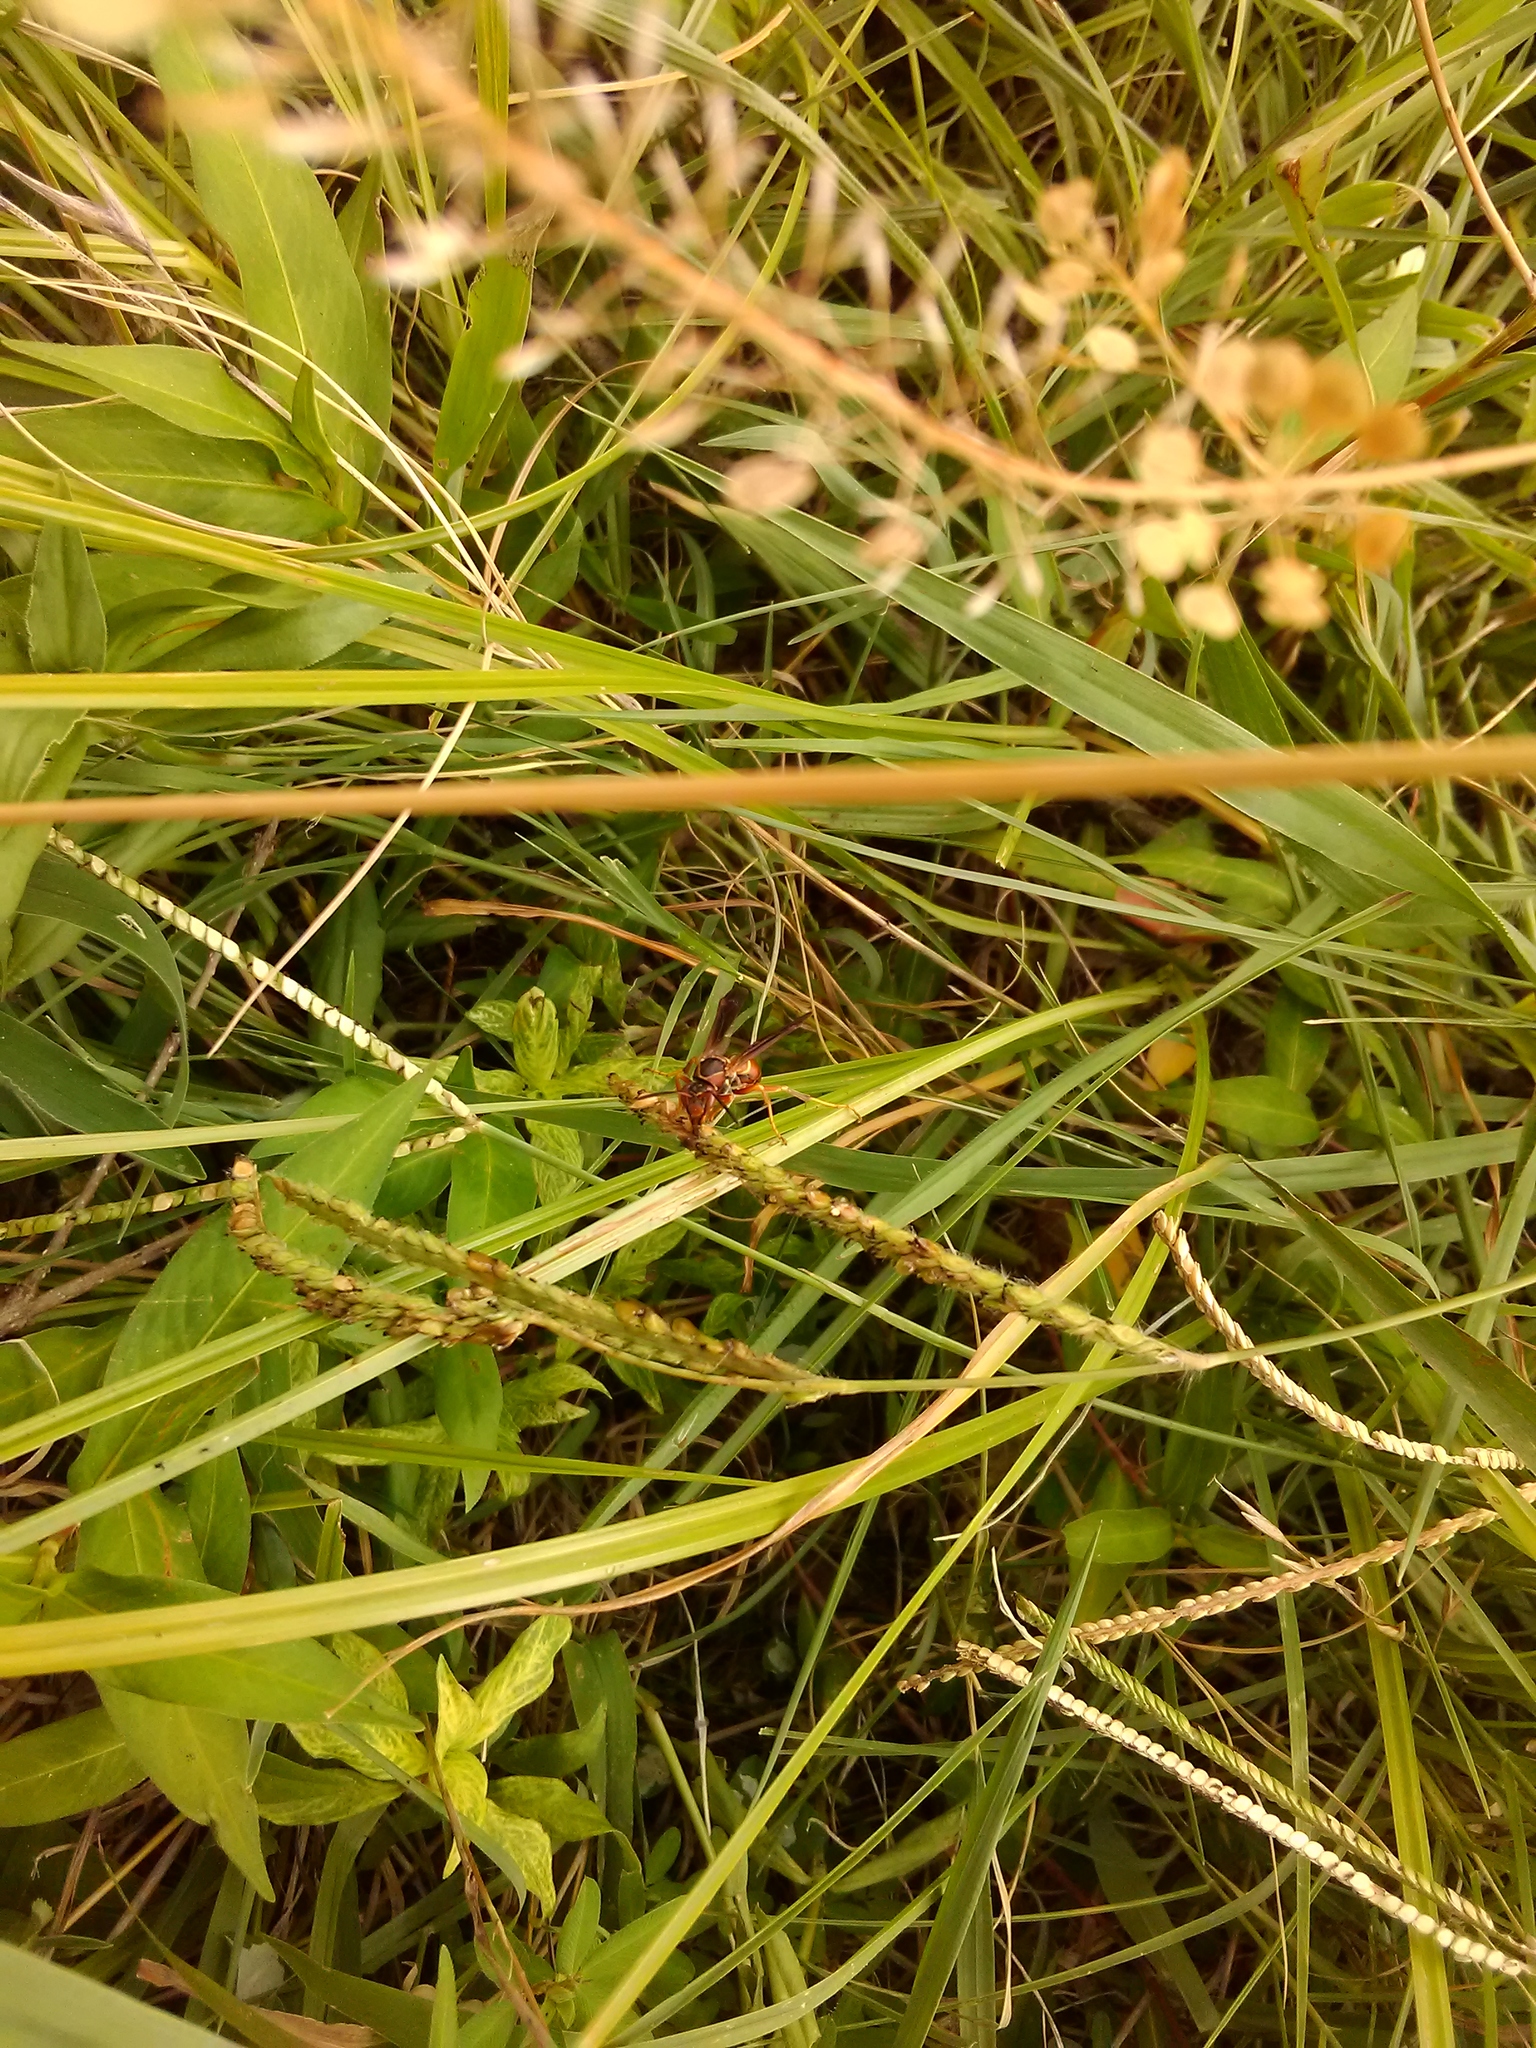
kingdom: Animalia
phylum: Arthropoda
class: Insecta
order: Hymenoptera
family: Eumenidae
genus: Polistes
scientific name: Polistes fuscatus
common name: Dark paper wasp
